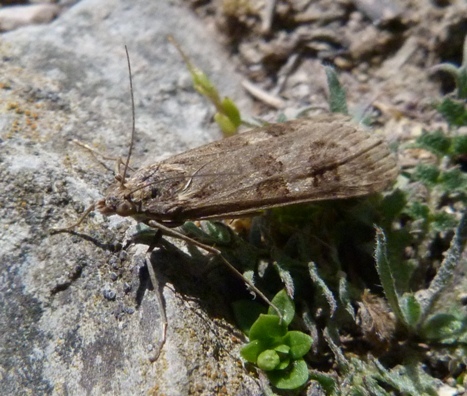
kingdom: Animalia
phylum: Arthropoda
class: Insecta
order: Lepidoptera
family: Crambidae
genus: Nomophila
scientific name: Nomophila noctuella
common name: Rush veneer
